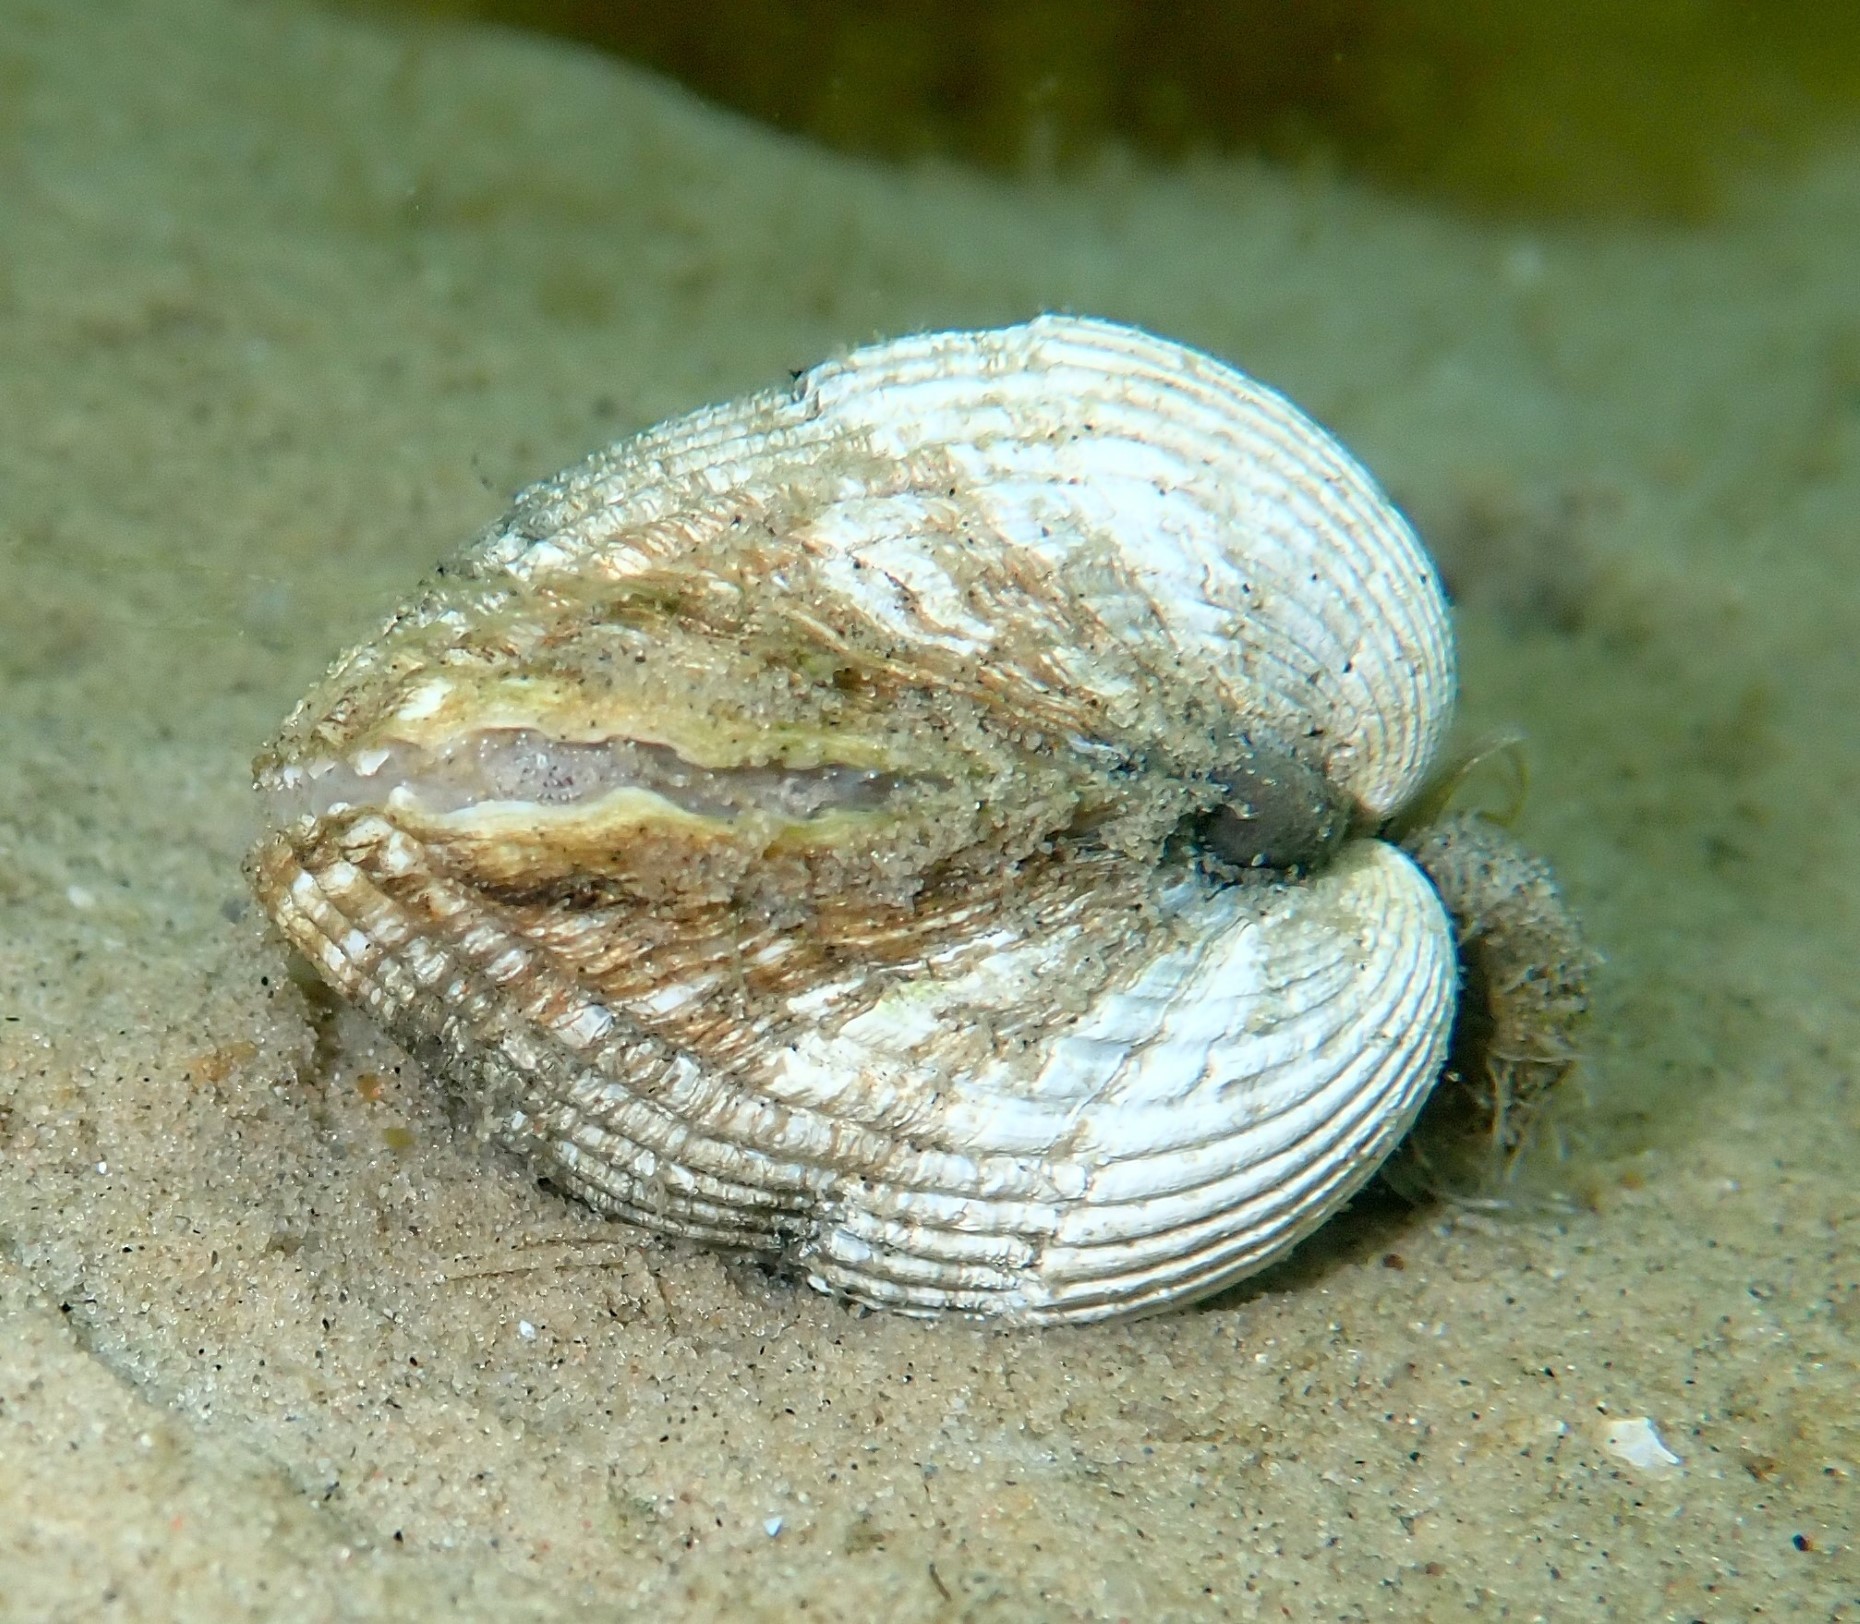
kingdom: Animalia
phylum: Mollusca
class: Bivalvia
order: Cardiida
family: Cardiidae
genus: Cerastoderma
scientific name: Cerastoderma edule
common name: Common cockle
